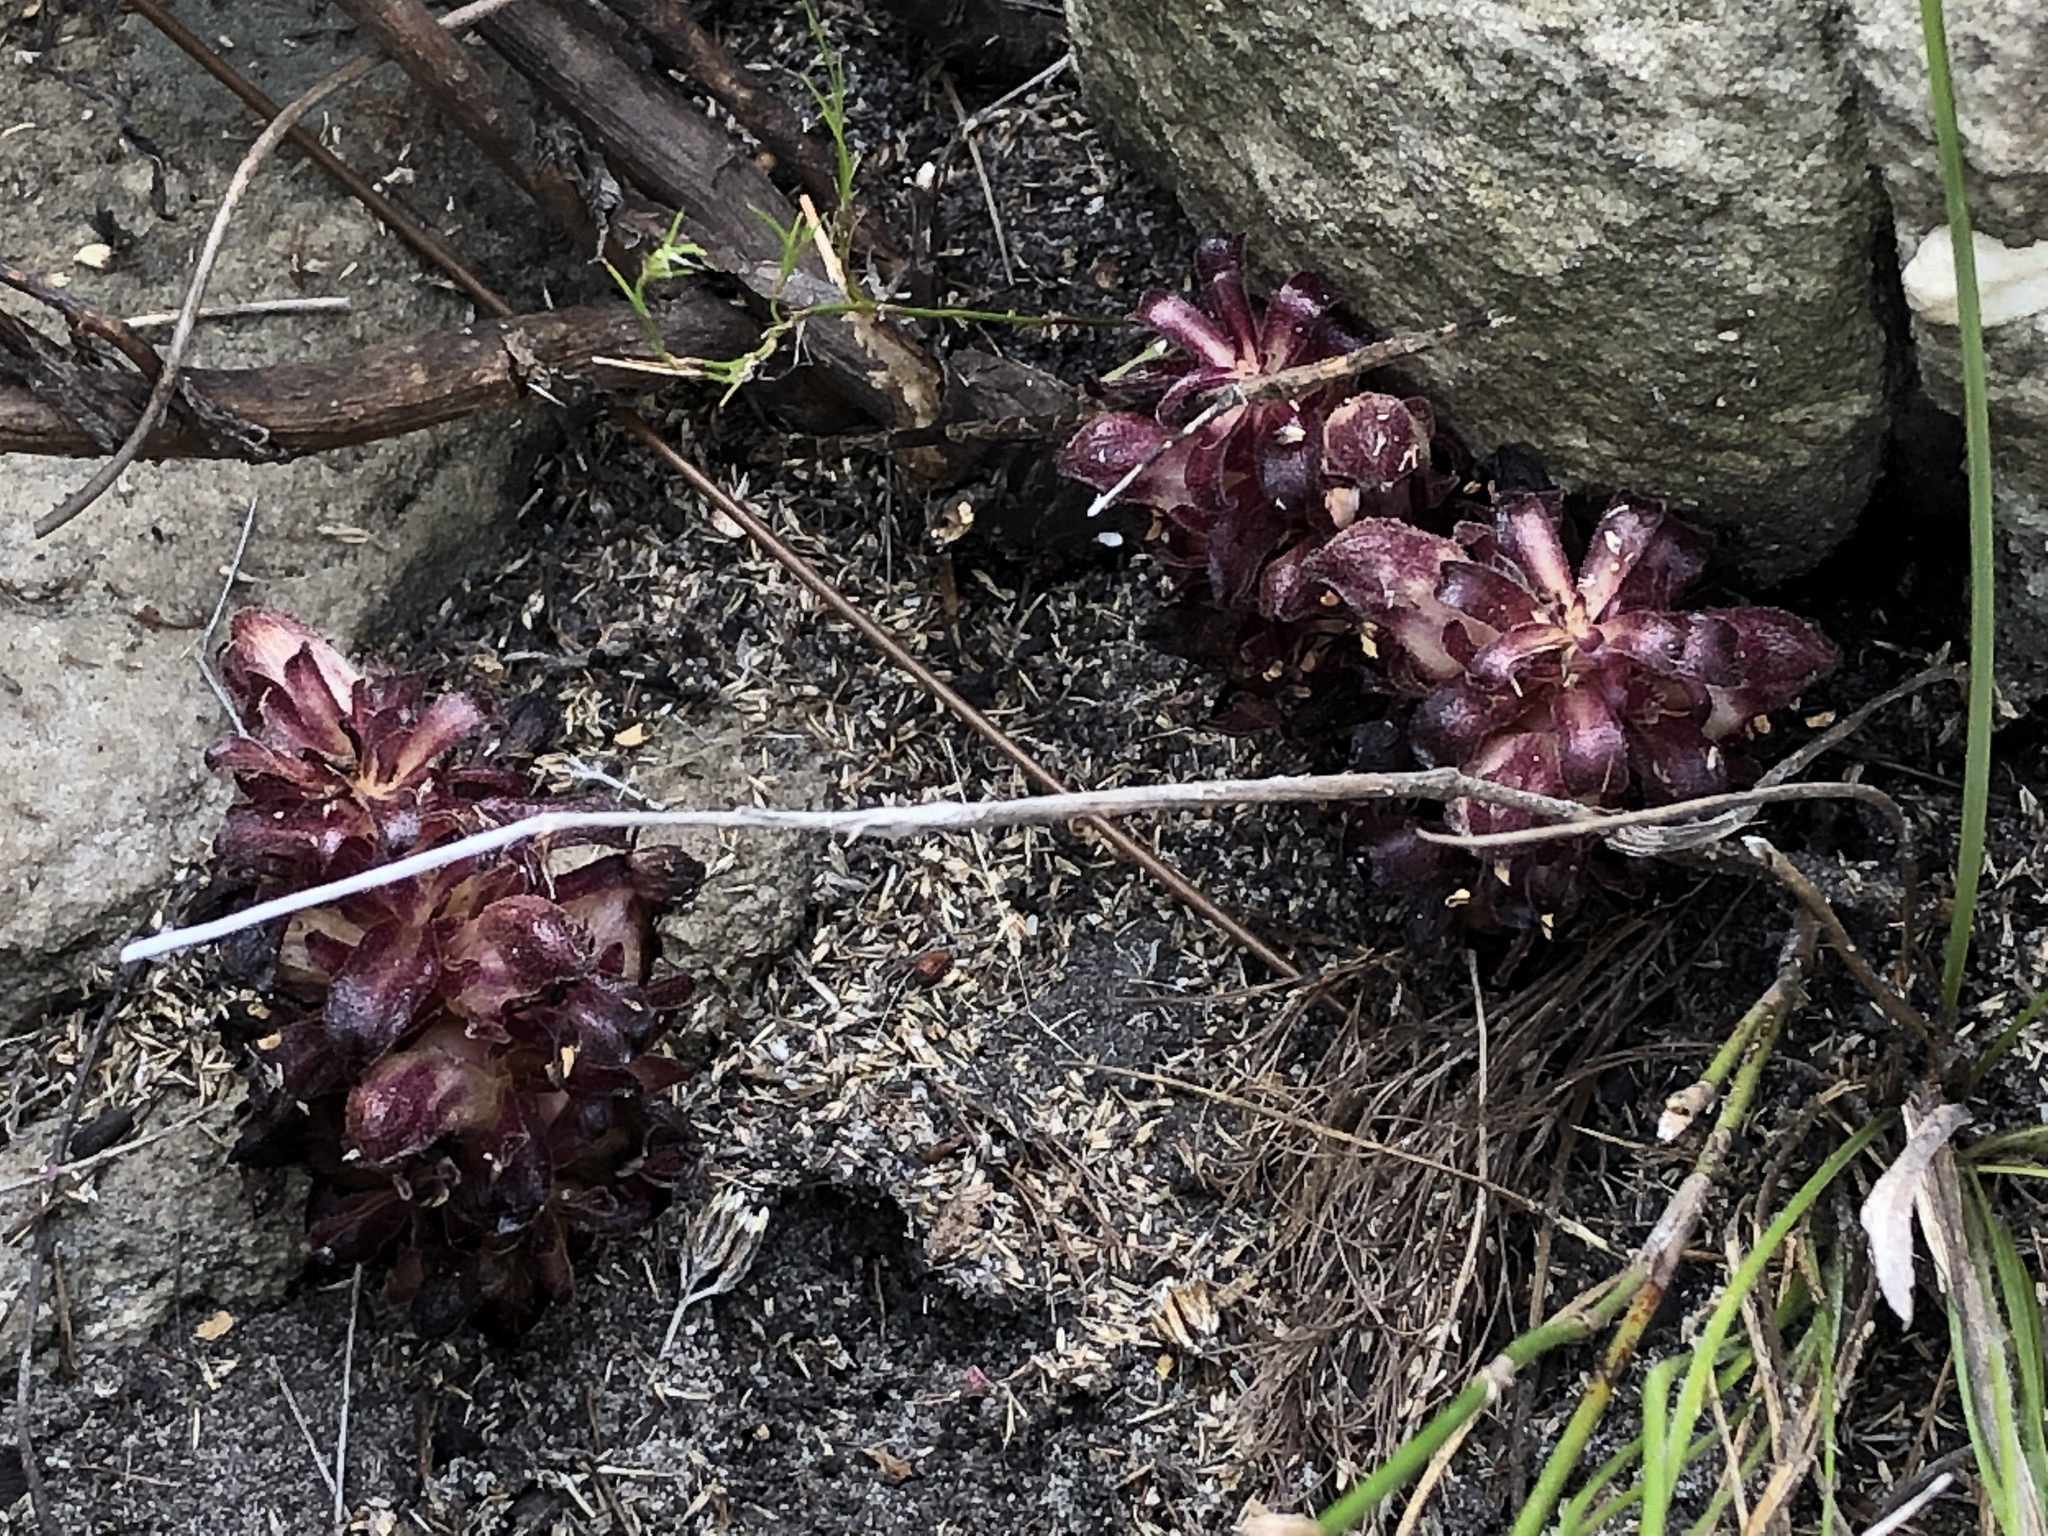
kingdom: Plantae
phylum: Tracheophyta
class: Magnoliopsida
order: Lamiales
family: Orobanchaceae
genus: Hyobanche
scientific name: Hyobanche atropurpurea
